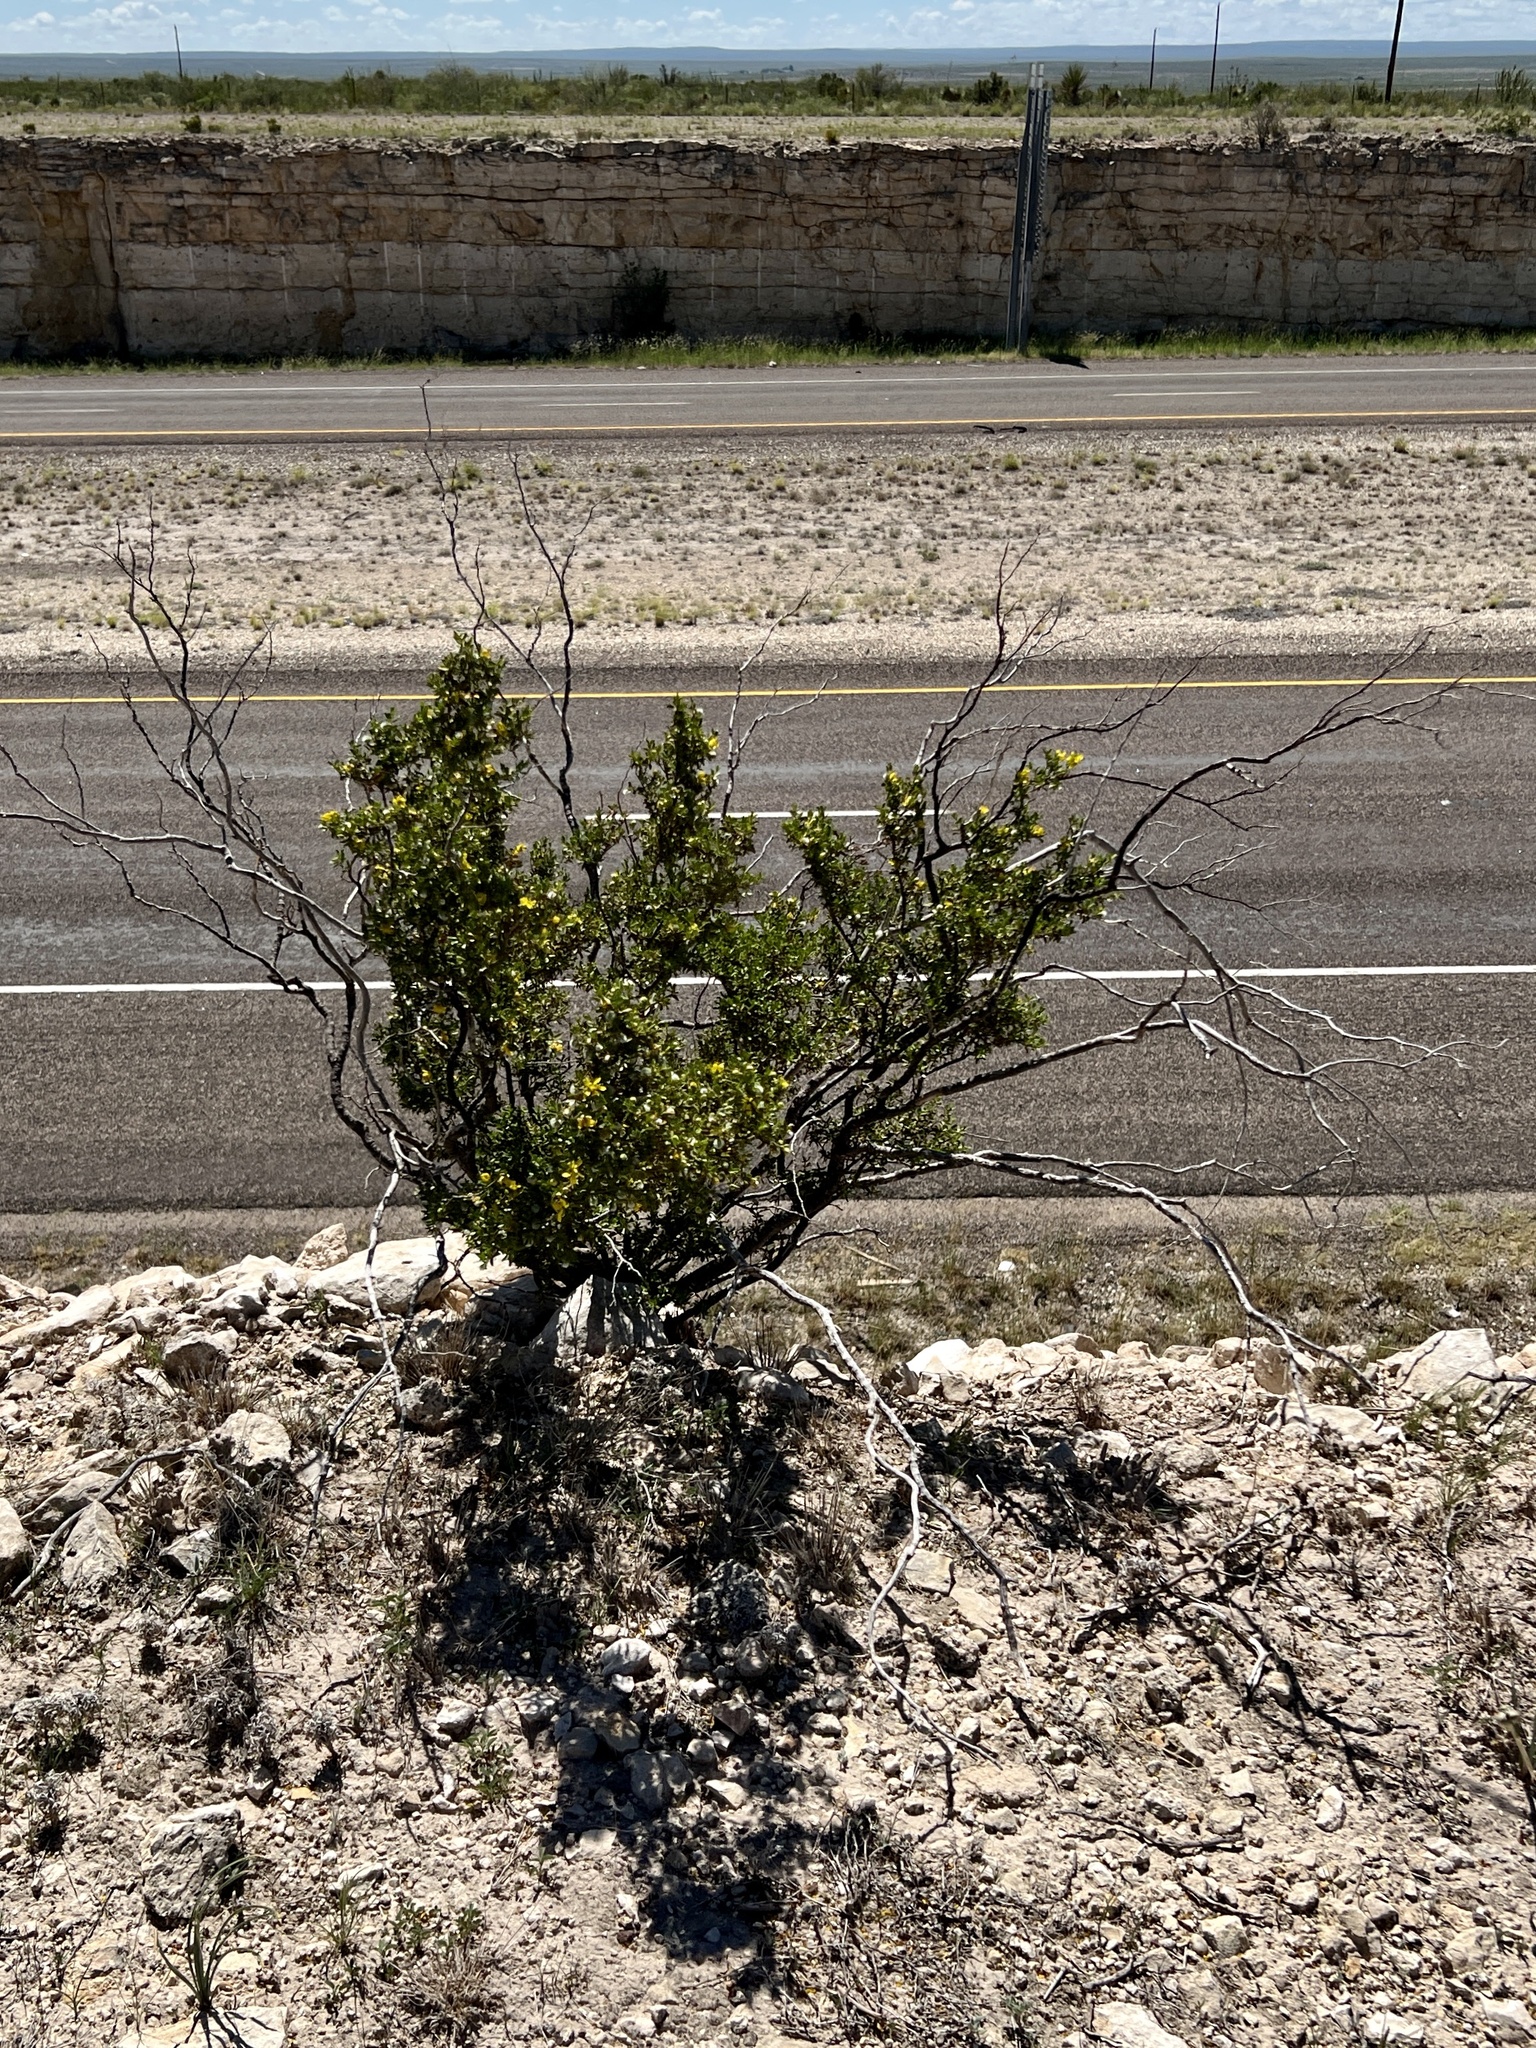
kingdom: Plantae
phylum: Tracheophyta
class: Magnoliopsida
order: Zygophyllales
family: Zygophyllaceae
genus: Larrea
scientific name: Larrea tridentata
